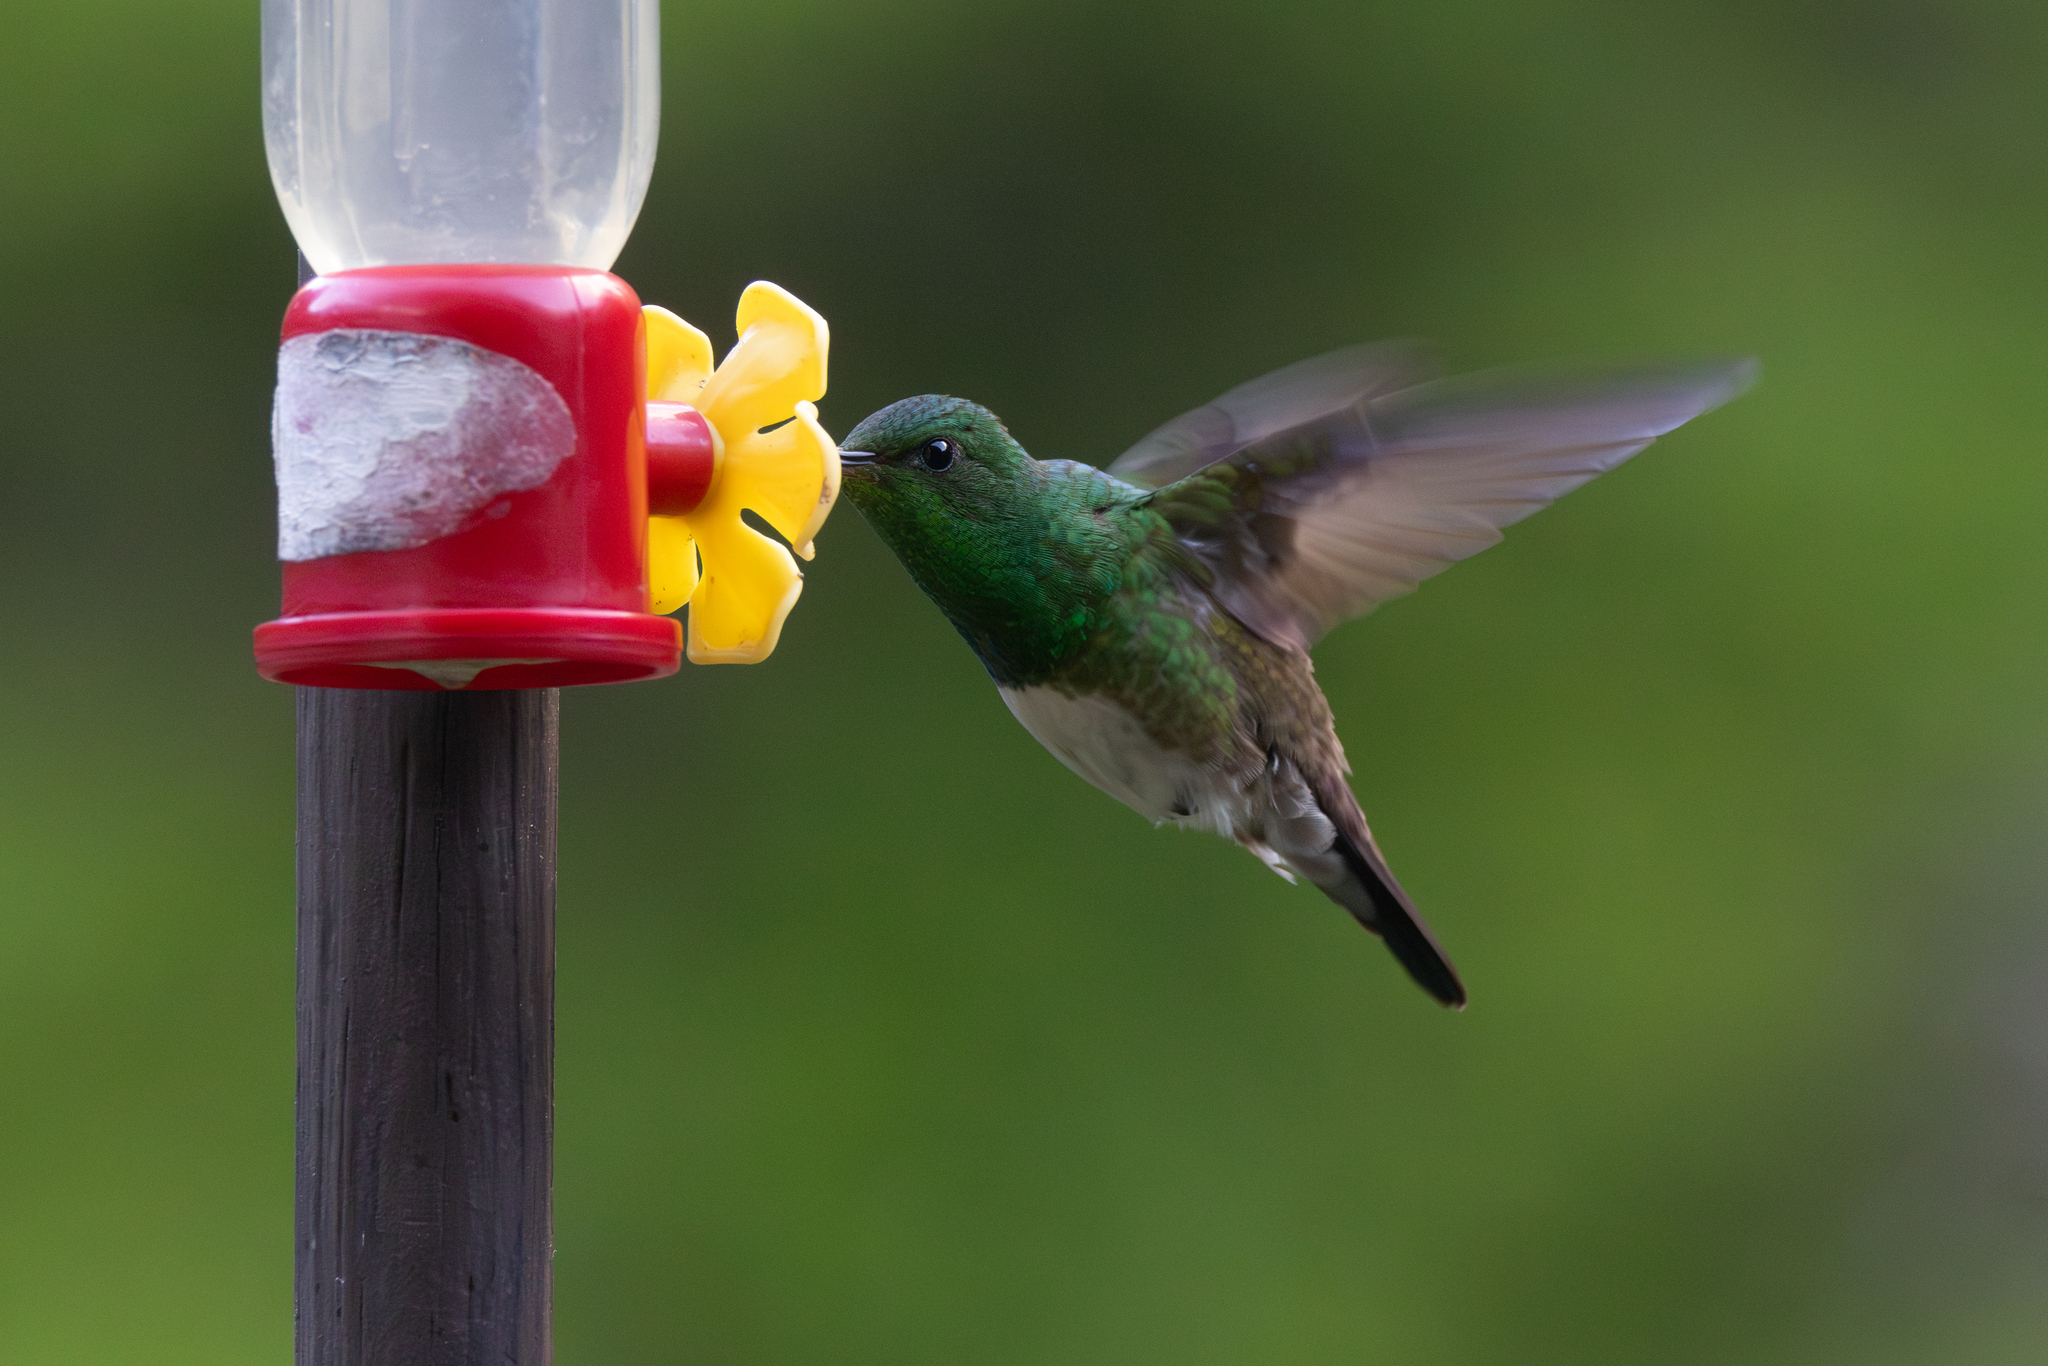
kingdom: Animalia
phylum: Chordata
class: Aves
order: Apodiformes
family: Trochilidae
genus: Saucerottia
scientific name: Saucerottia edward
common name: Snowy-bellied hummingbird
